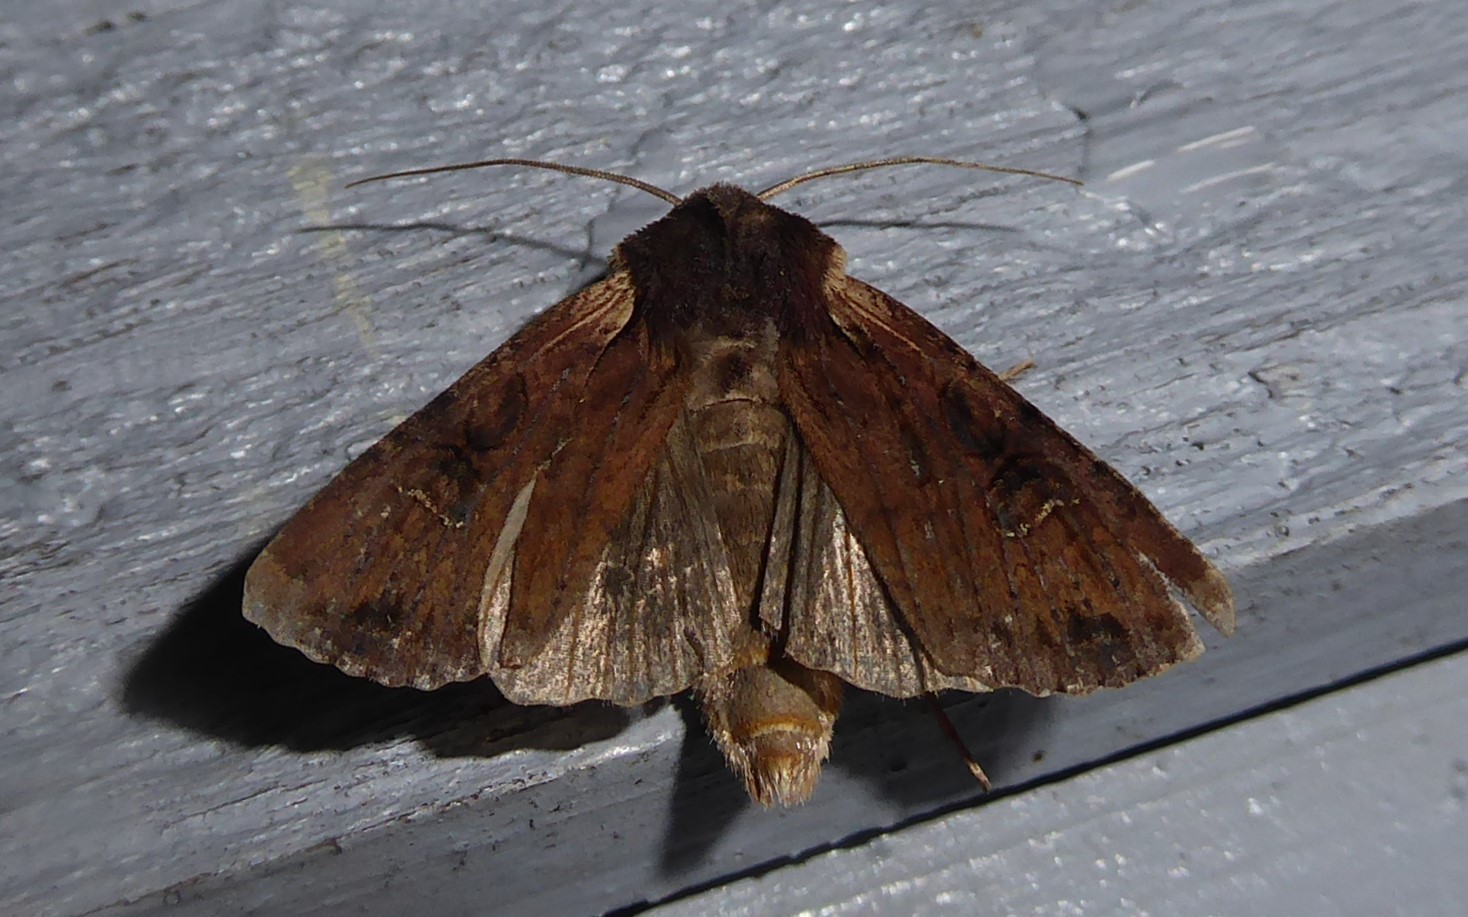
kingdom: Animalia
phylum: Arthropoda
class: Insecta
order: Lepidoptera
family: Noctuidae
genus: Ichneutica
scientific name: Ichneutica omoplaca
